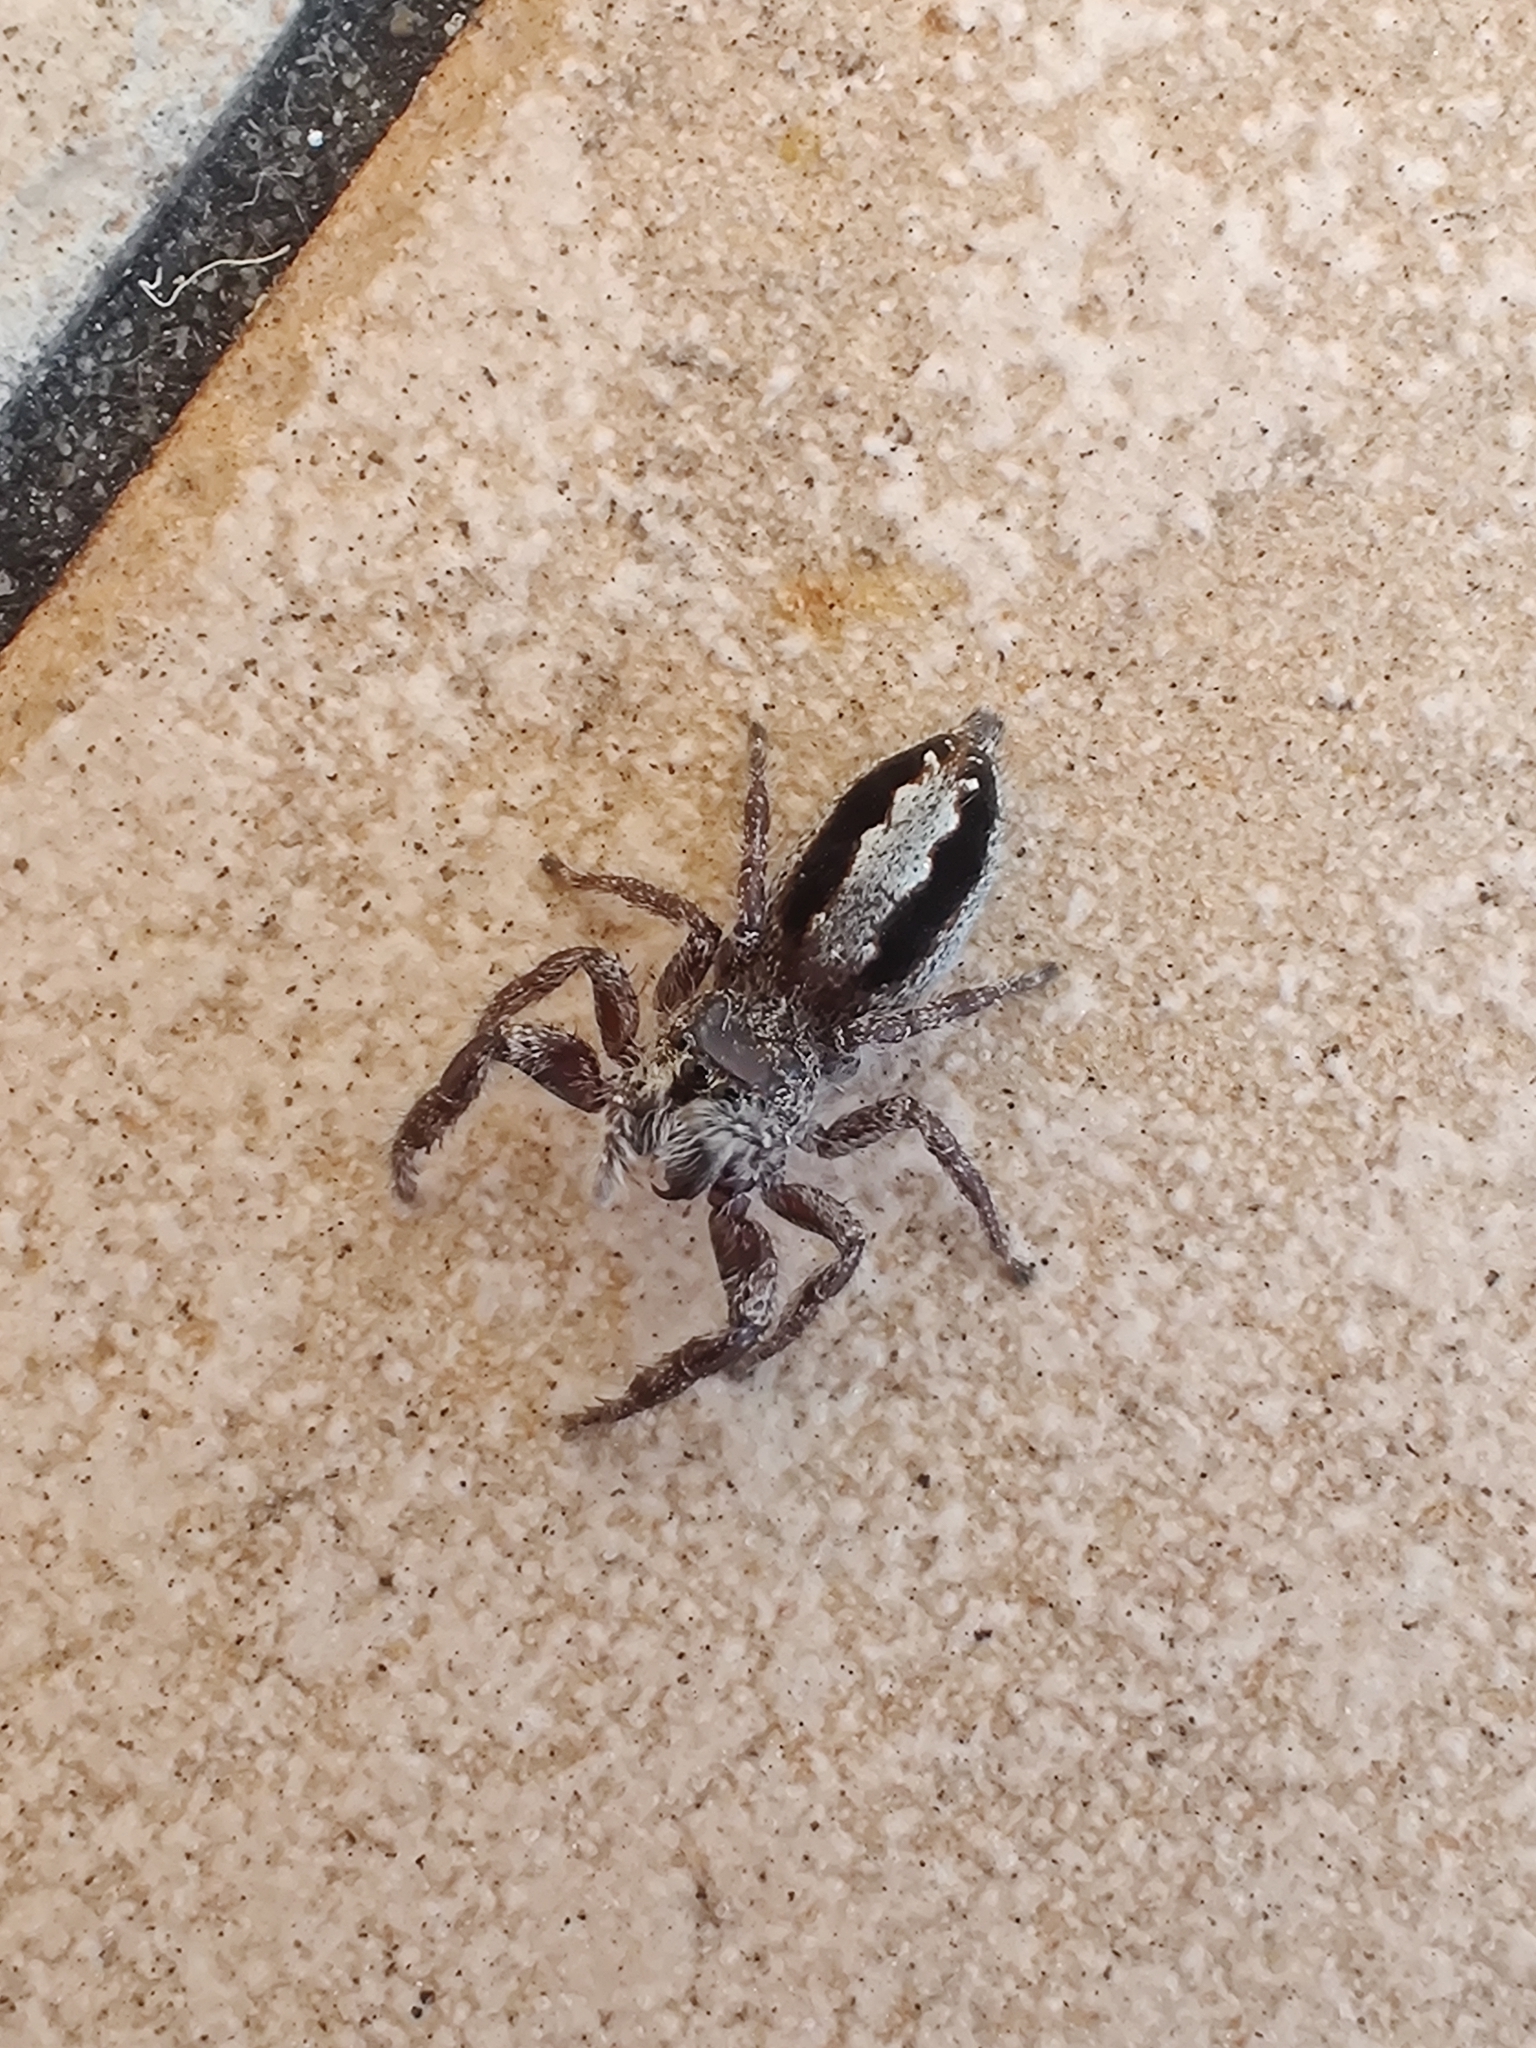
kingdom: Animalia
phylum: Arthropoda
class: Arachnida
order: Araneae
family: Salticidae
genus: Clynotis
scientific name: Clynotis severus
